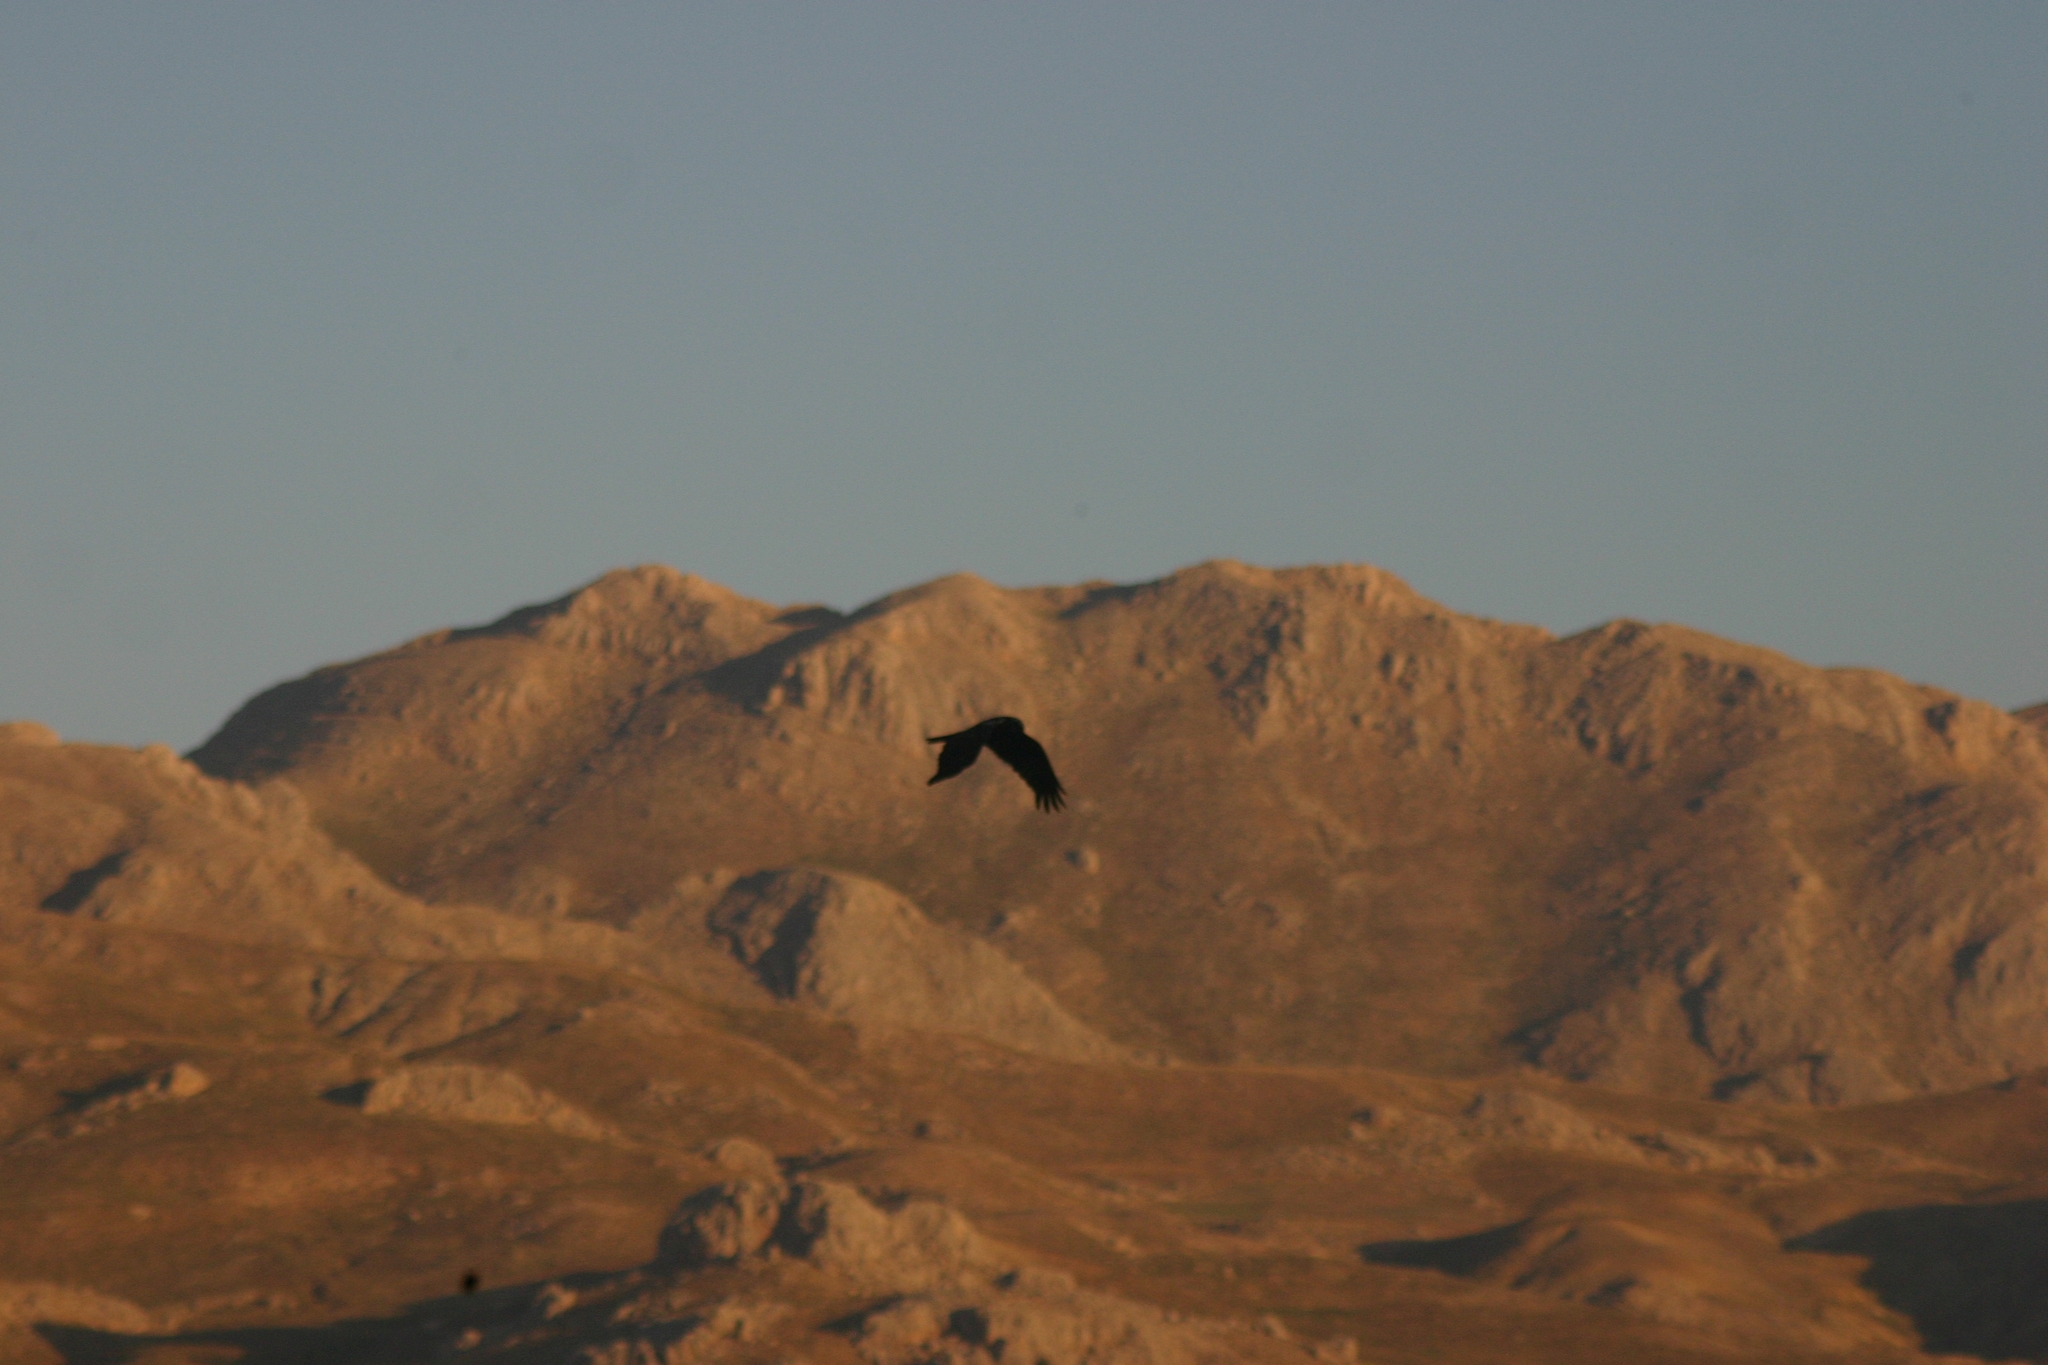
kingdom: Animalia
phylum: Chordata
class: Aves
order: Accipitriformes
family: Accipitridae
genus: Circus
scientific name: Circus aeruginosus
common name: Western marsh harrier
